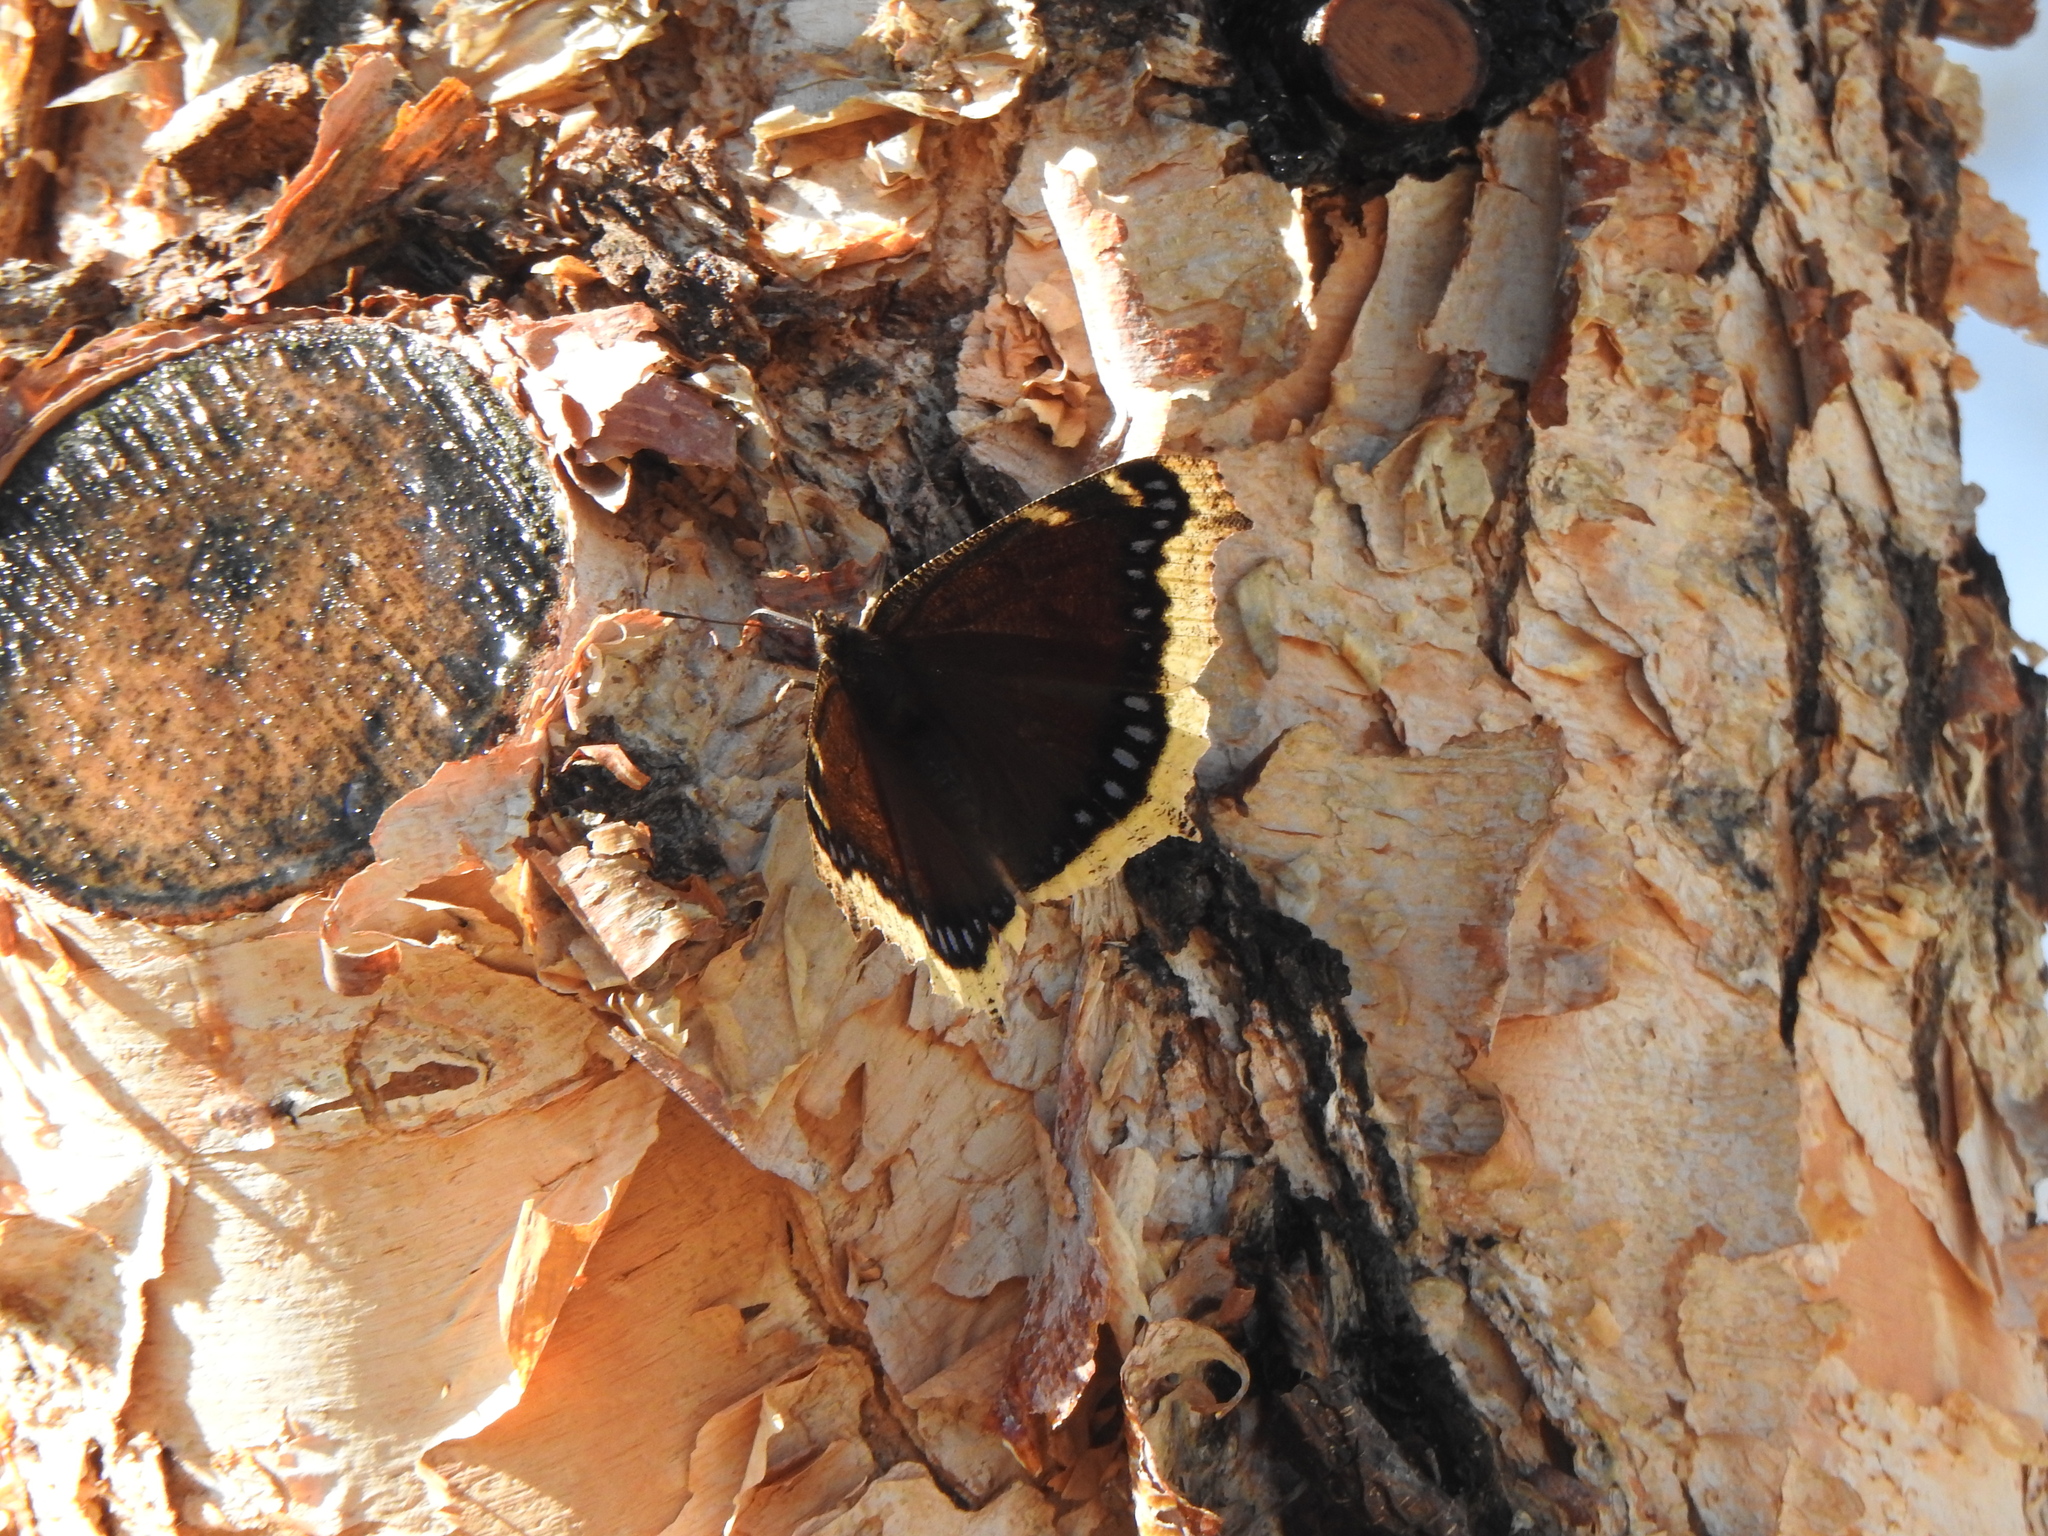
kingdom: Animalia
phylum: Arthropoda
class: Insecta
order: Lepidoptera
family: Nymphalidae
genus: Nymphalis
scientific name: Nymphalis antiopa
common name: Camberwell beauty
